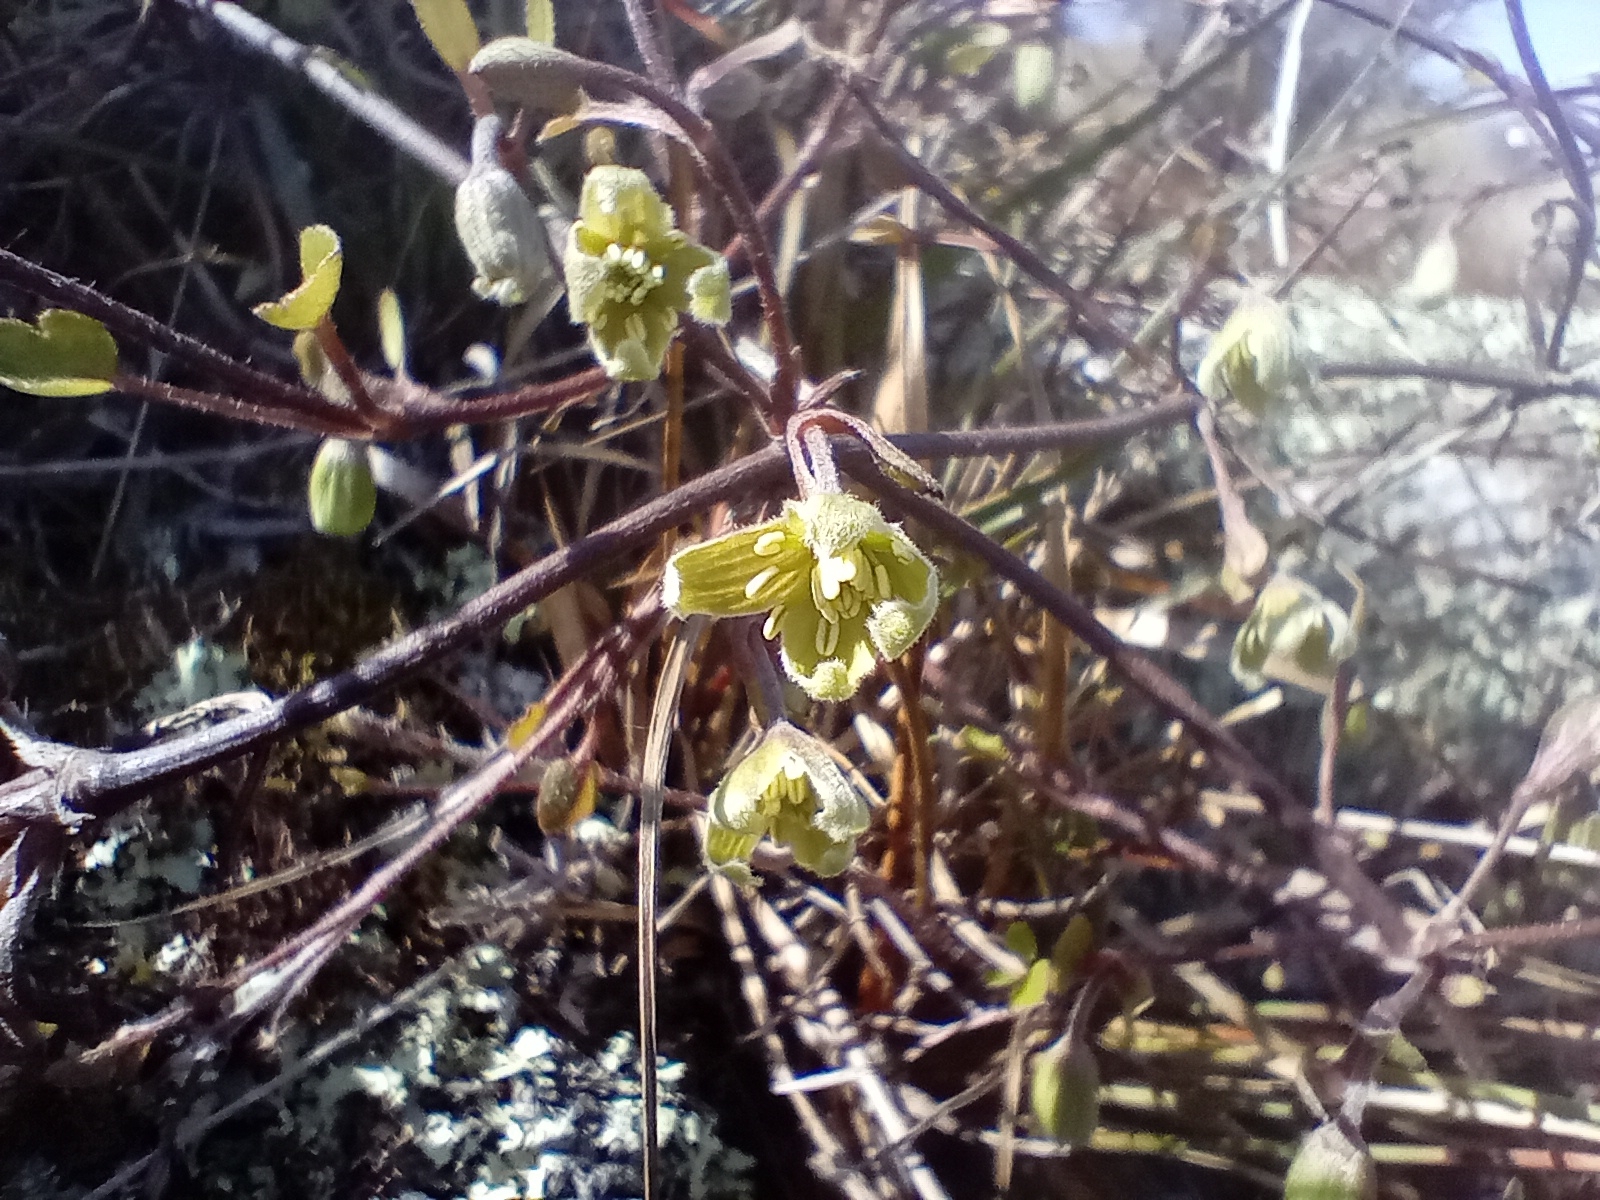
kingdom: Plantae
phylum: Tracheophyta
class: Magnoliopsida
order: Ranunculales
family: Ranunculaceae
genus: Clematis
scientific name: Clematis marata
